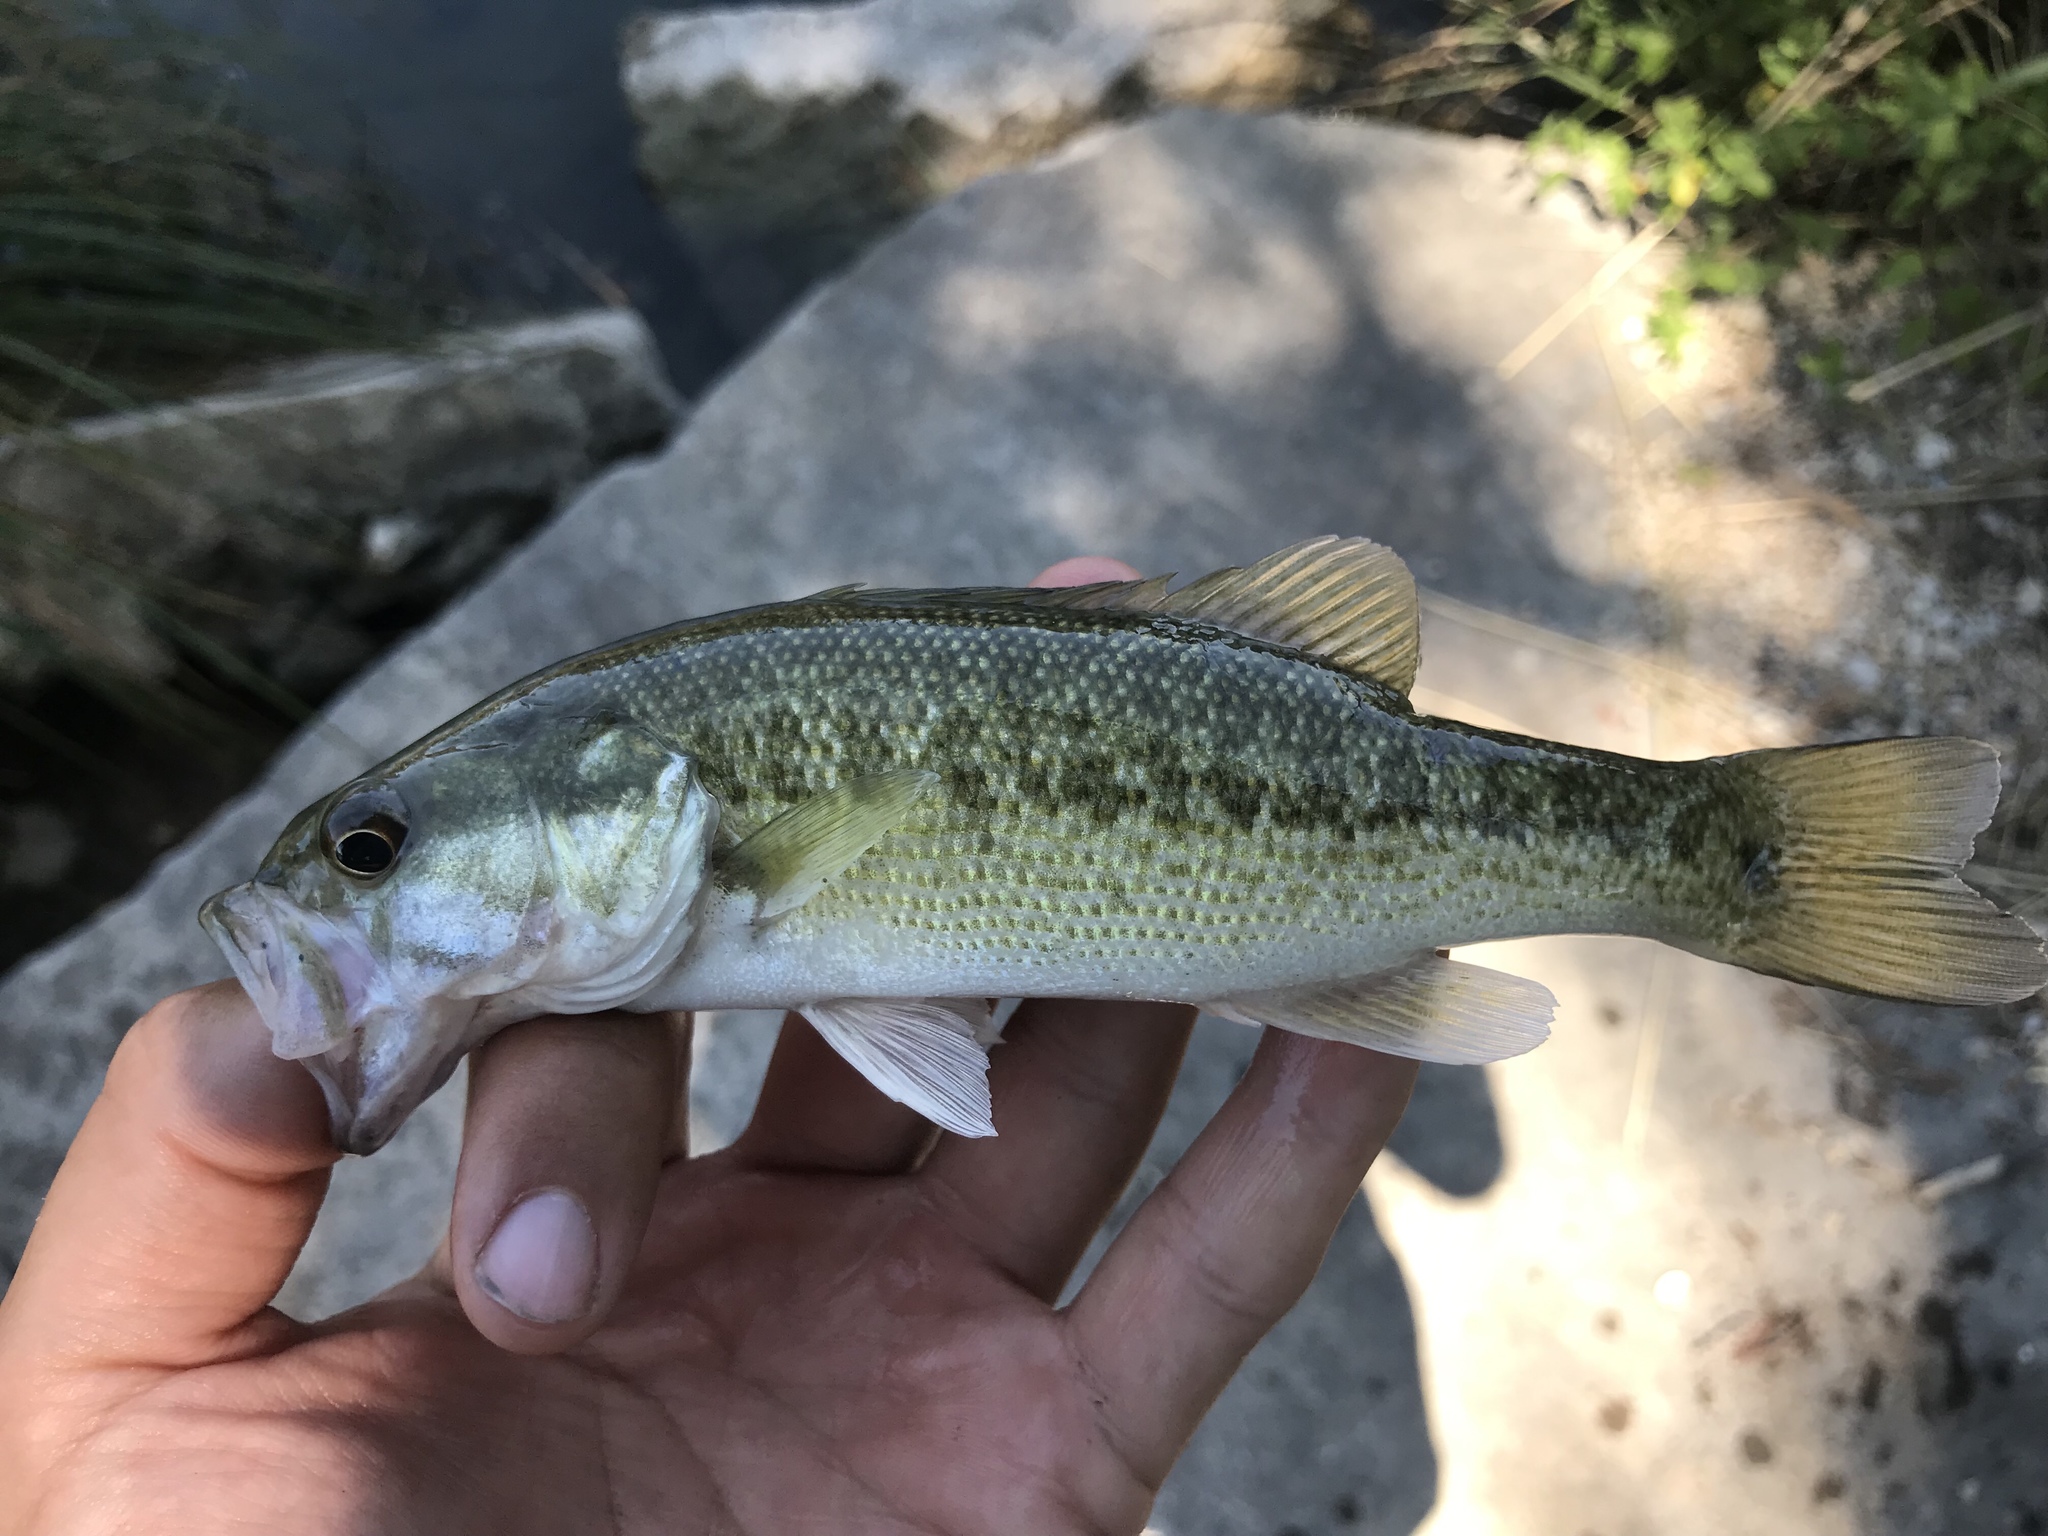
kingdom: Animalia
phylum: Chordata
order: Perciformes
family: Centrarchidae
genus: Micropterus
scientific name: Micropterus treculii
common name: Guadalupe bass
